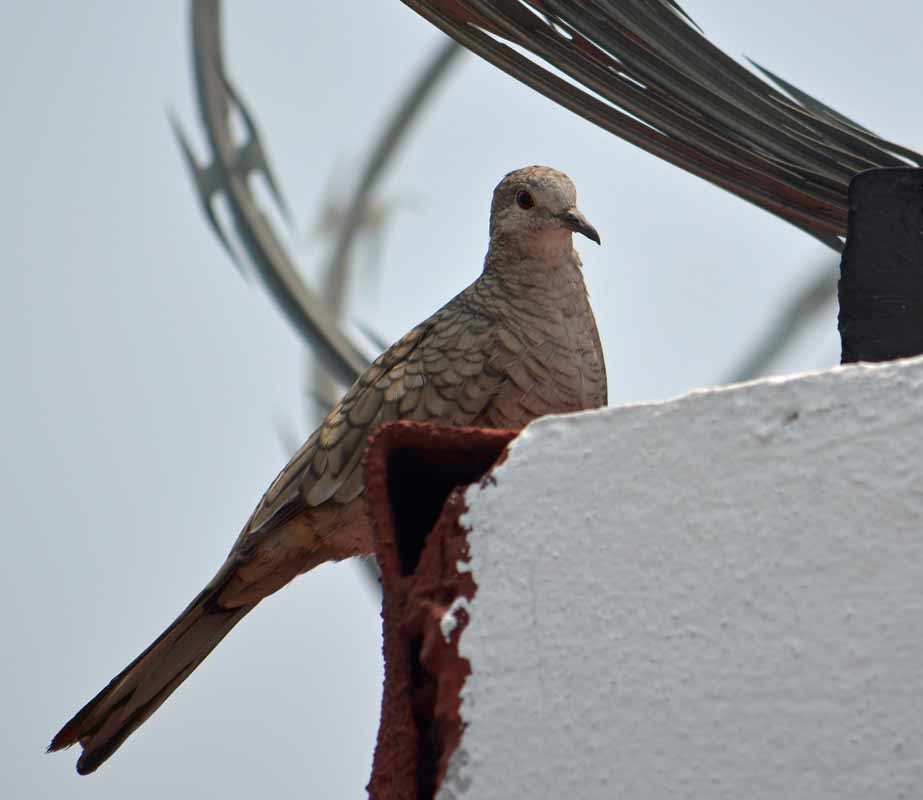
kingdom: Animalia
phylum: Chordata
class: Aves
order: Columbiformes
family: Columbidae
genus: Columbina
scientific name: Columbina inca
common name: Inca dove
